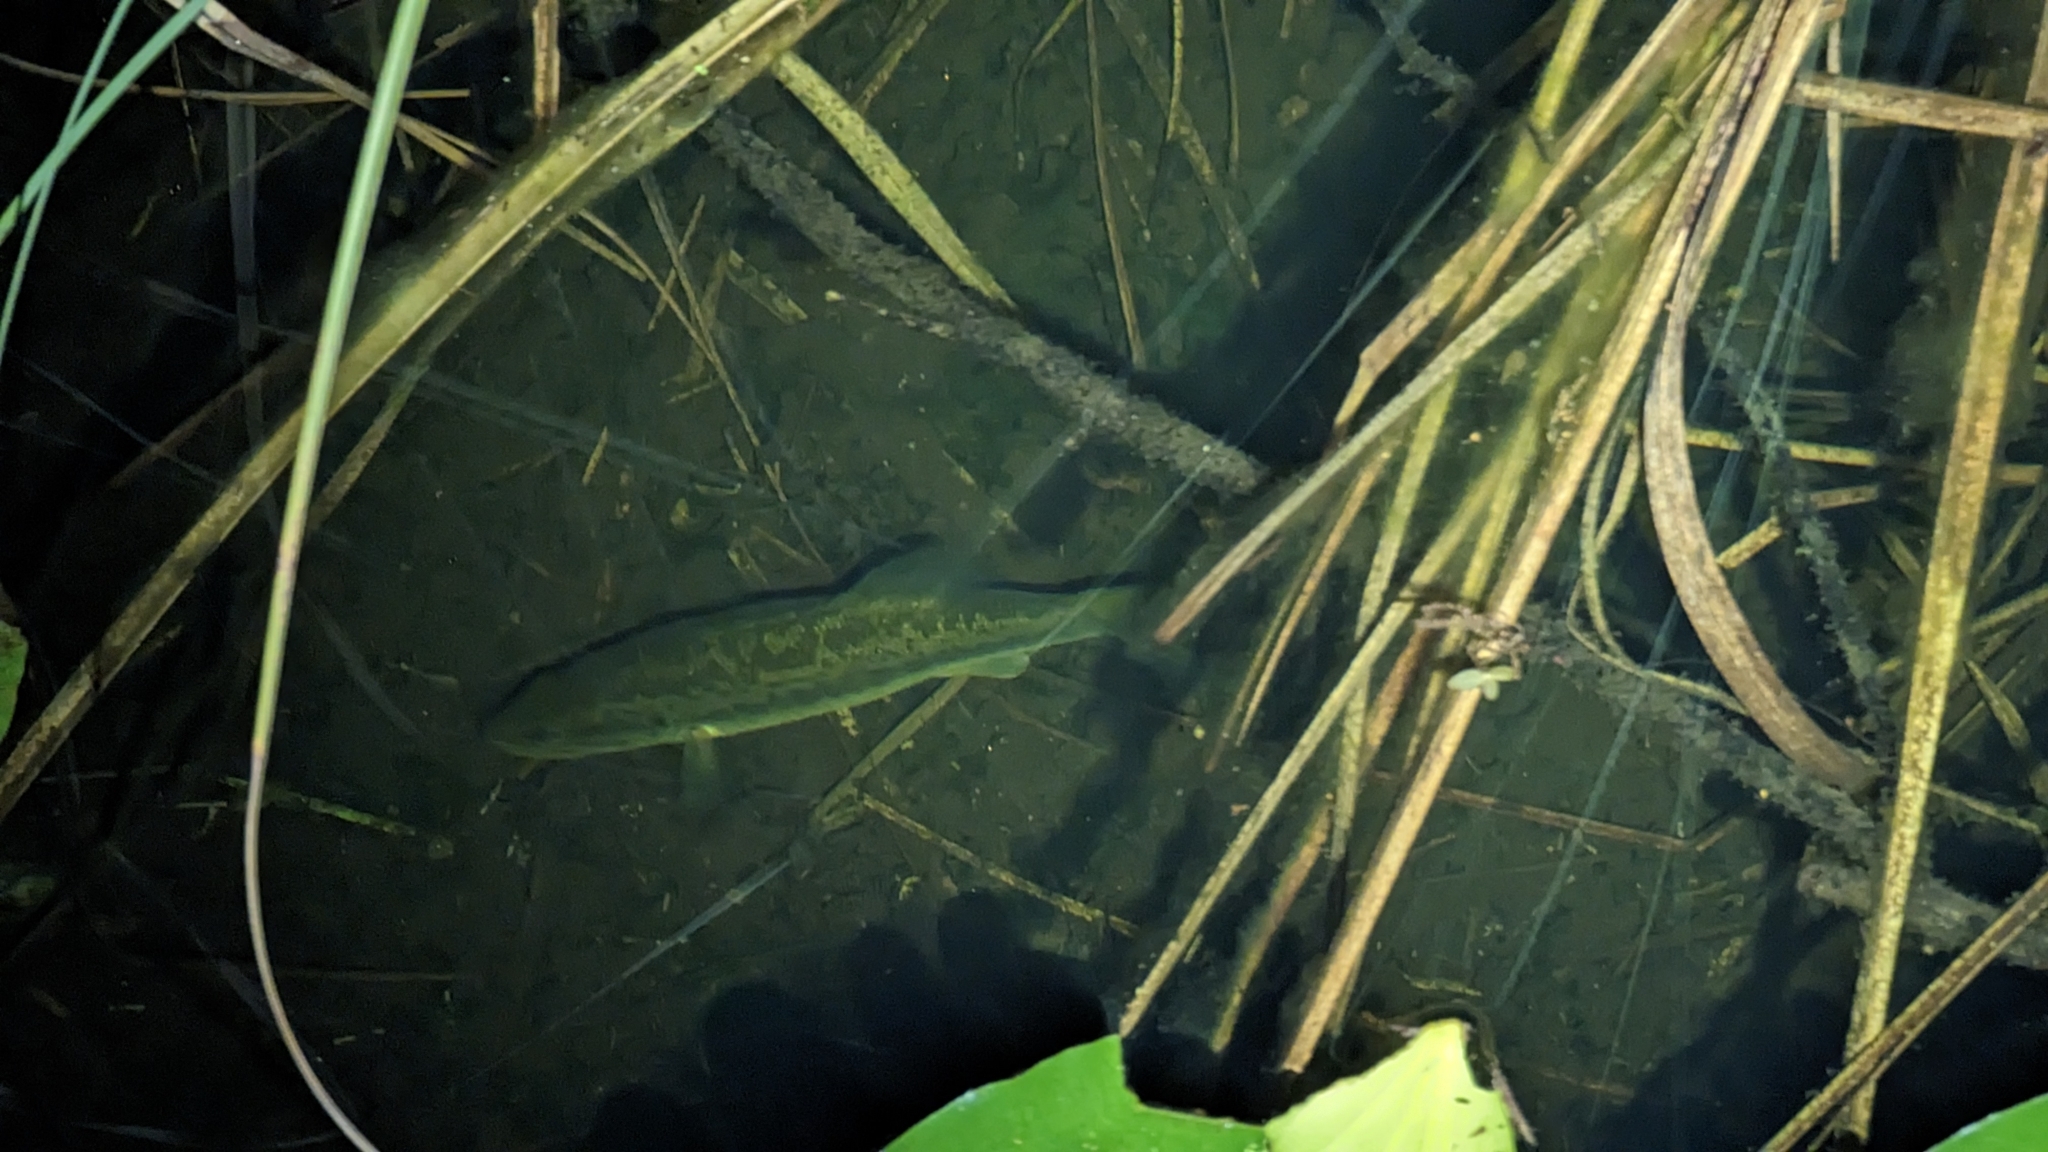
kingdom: Animalia
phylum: Chordata
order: Perciformes
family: Centrarchidae
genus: Micropterus
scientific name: Micropterus salmoides
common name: Largemouth bass
